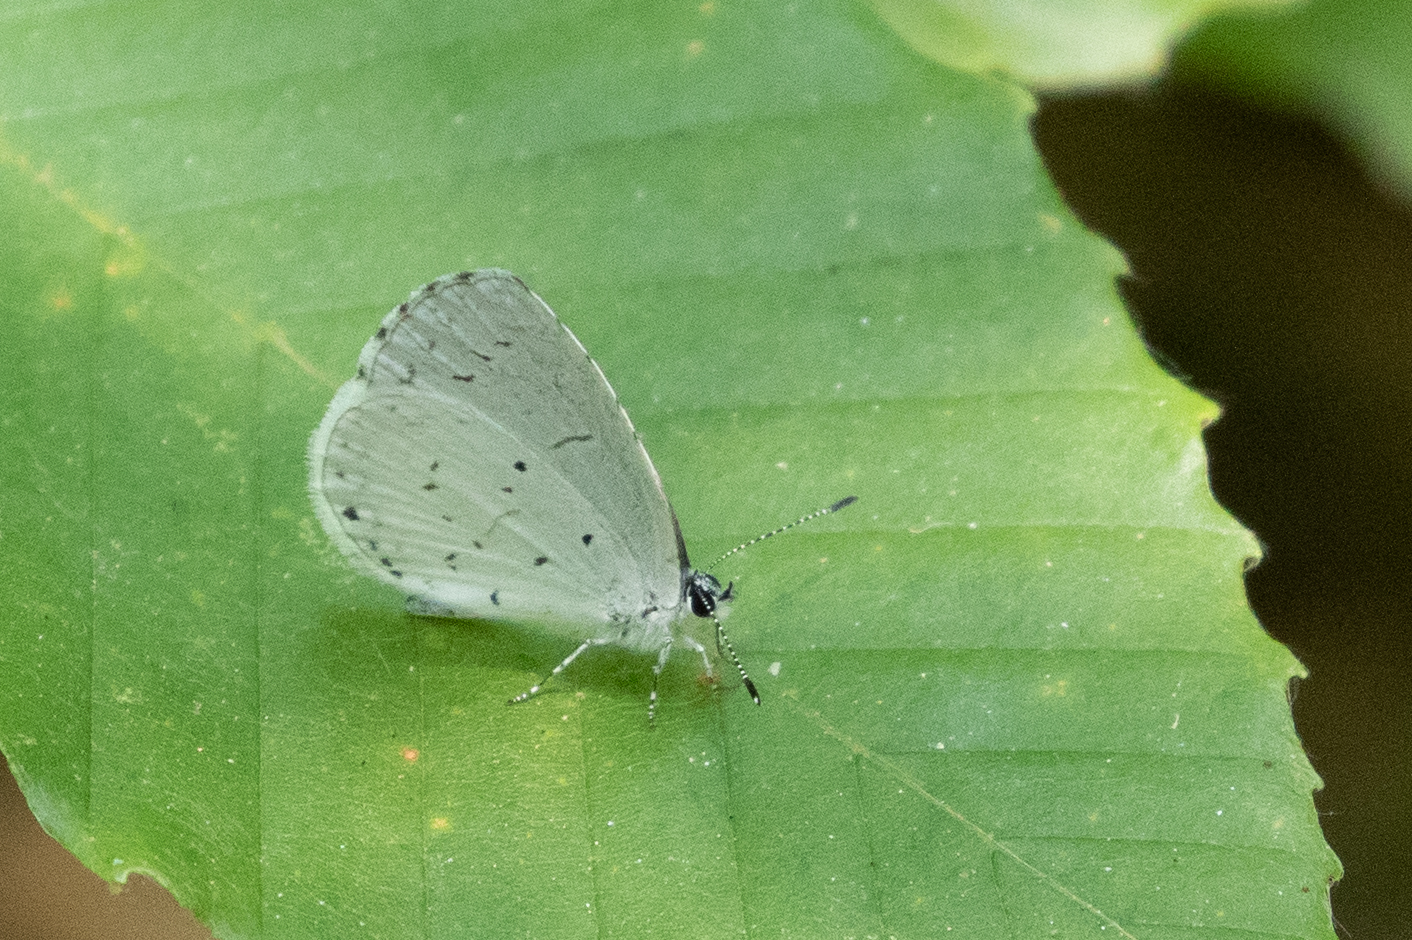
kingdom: Animalia
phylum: Arthropoda
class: Insecta
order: Lepidoptera
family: Lycaenidae
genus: Cyaniris
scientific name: Cyaniris neglecta
